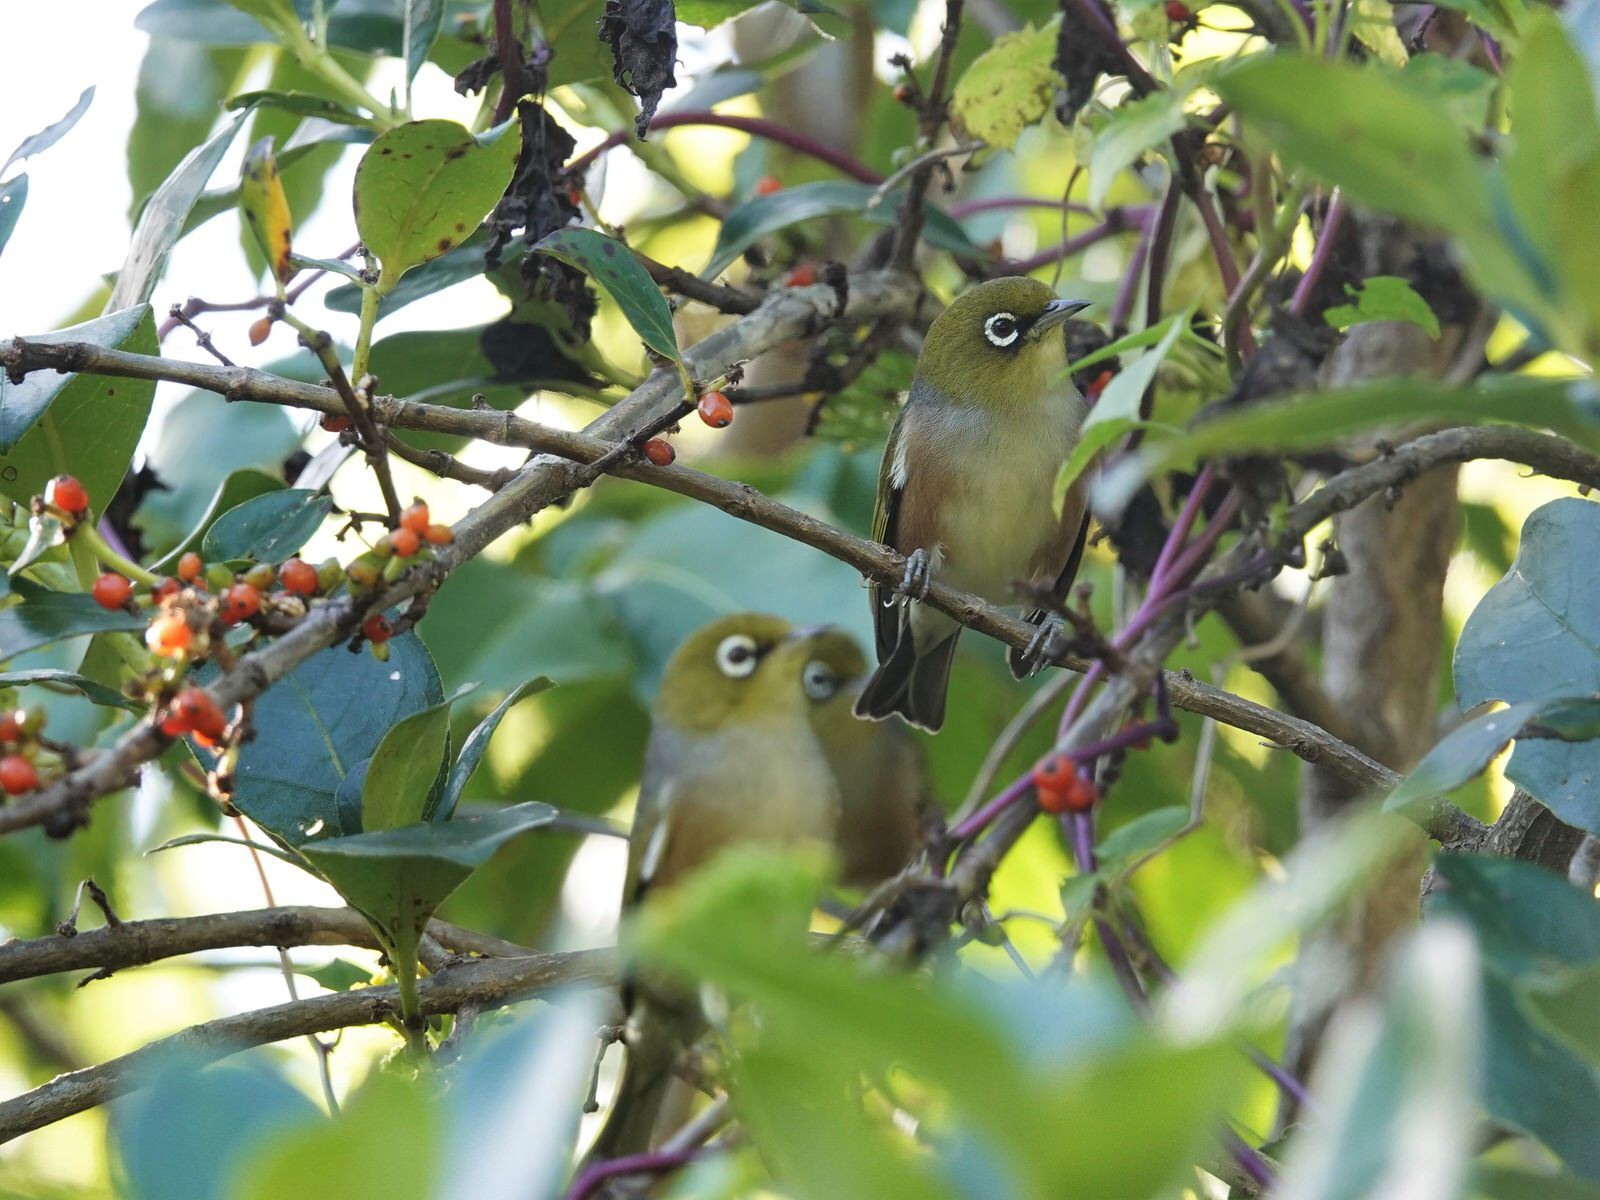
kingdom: Animalia
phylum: Chordata
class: Aves
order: Passeriformes
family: Zosteropidae
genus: Zosterops
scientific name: Zosterops lateralis
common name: Silvereye
